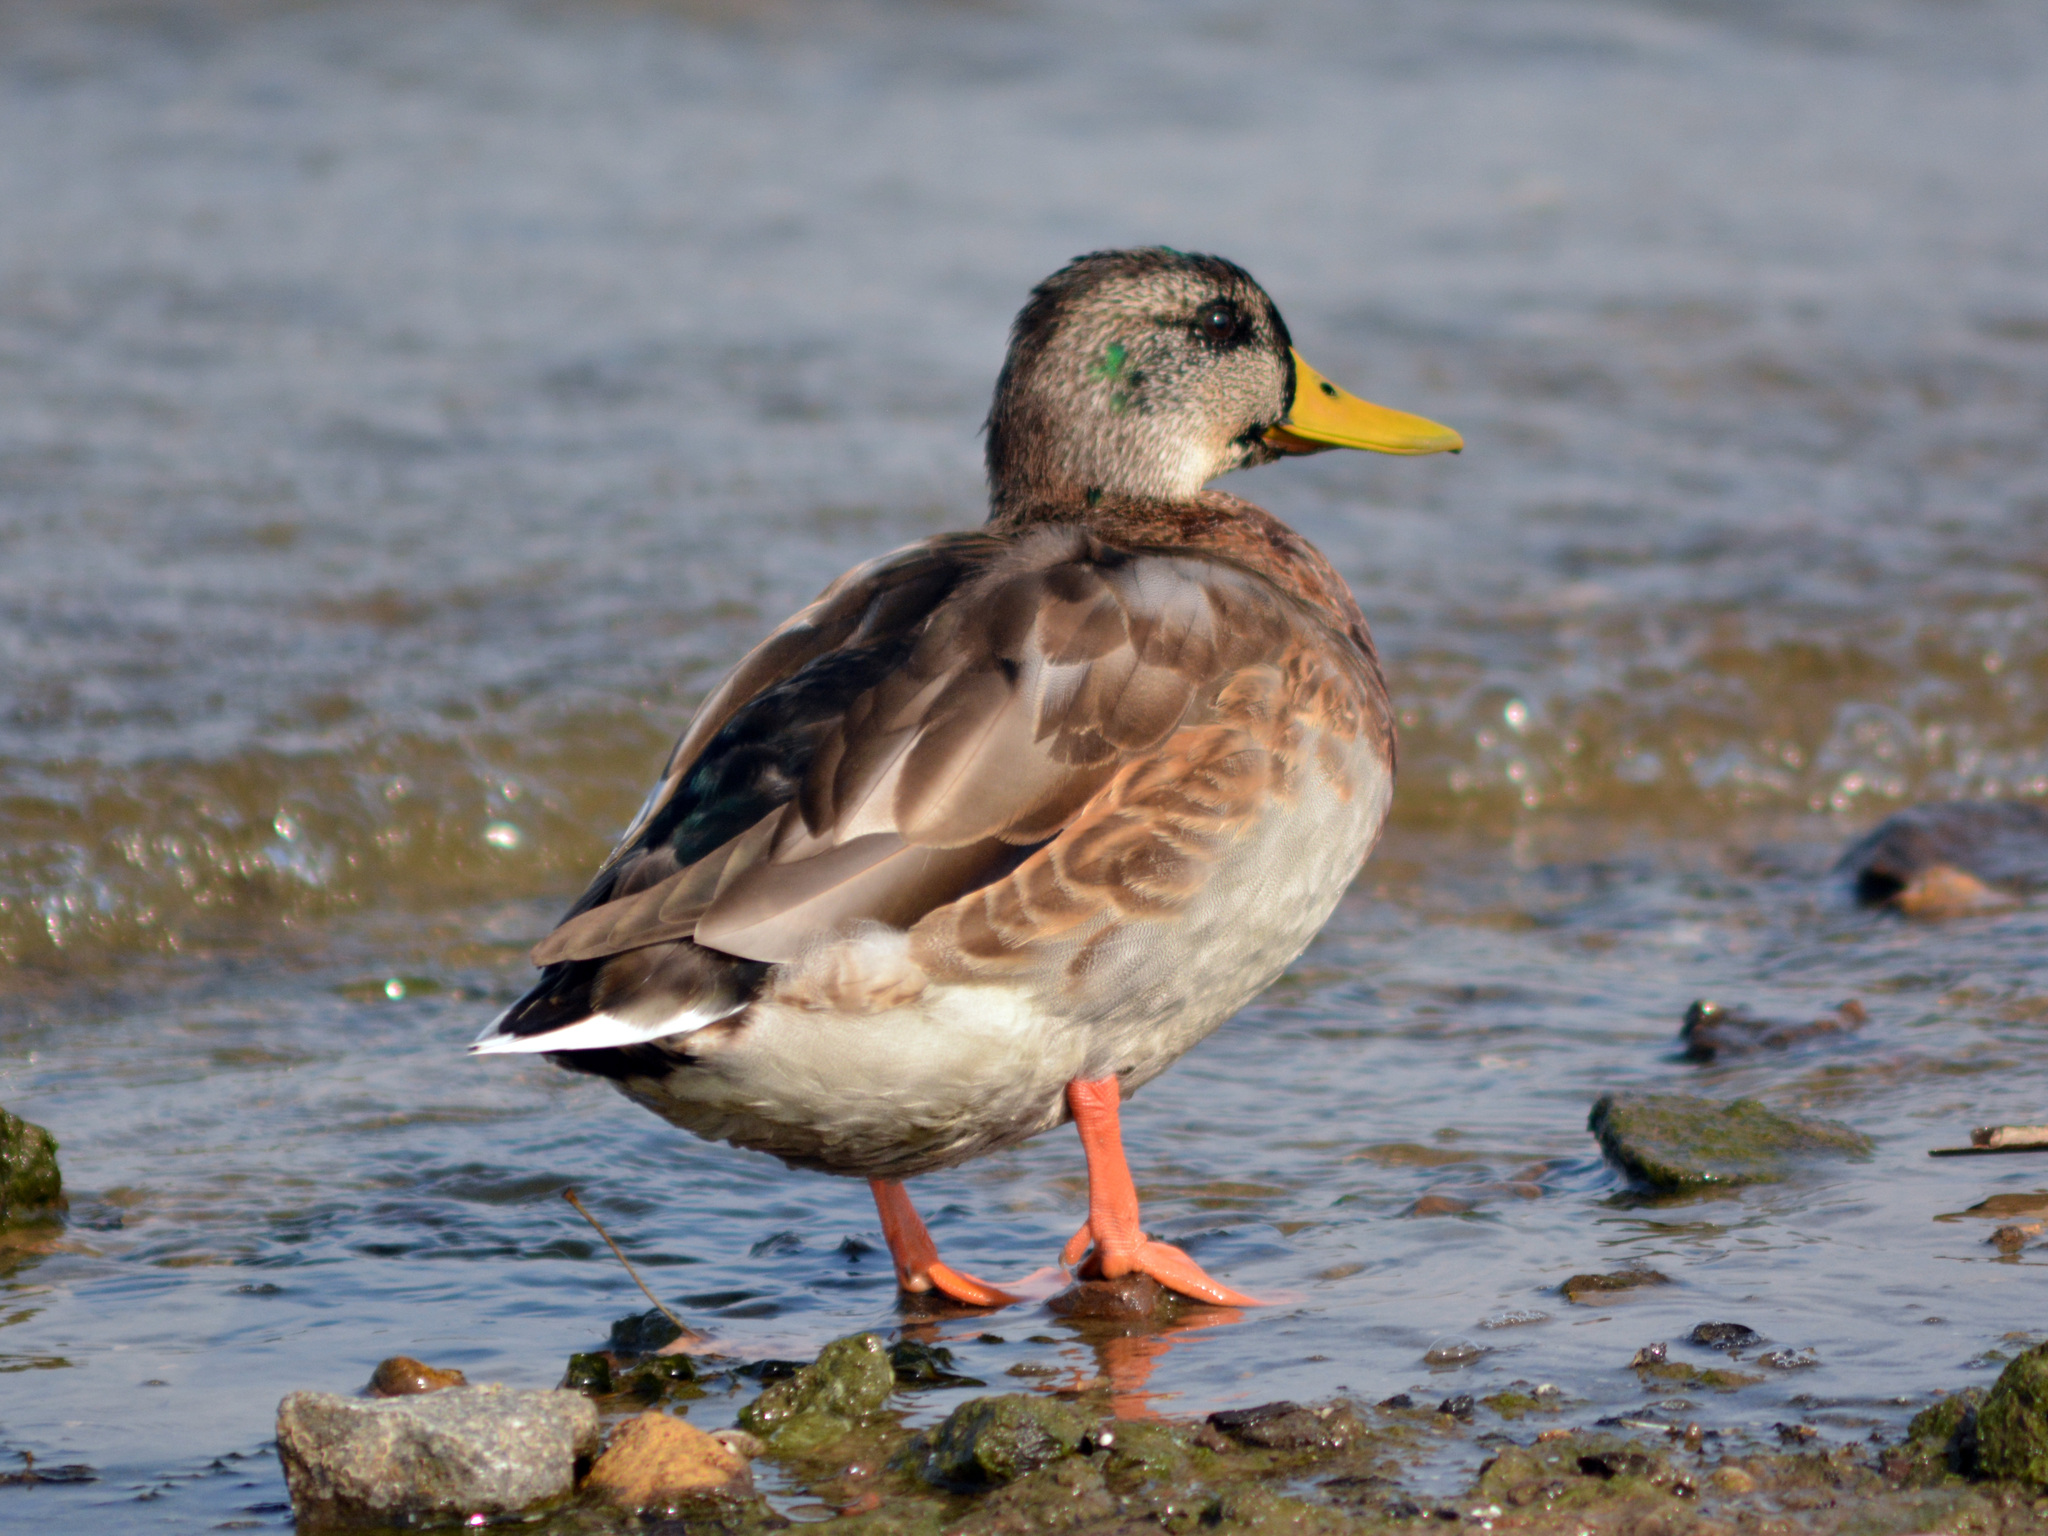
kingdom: Animalia
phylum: Chordata
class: Aves
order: Anseriformes
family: Anatidae
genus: Anas
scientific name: Anas platyrhynchos
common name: Mallard
